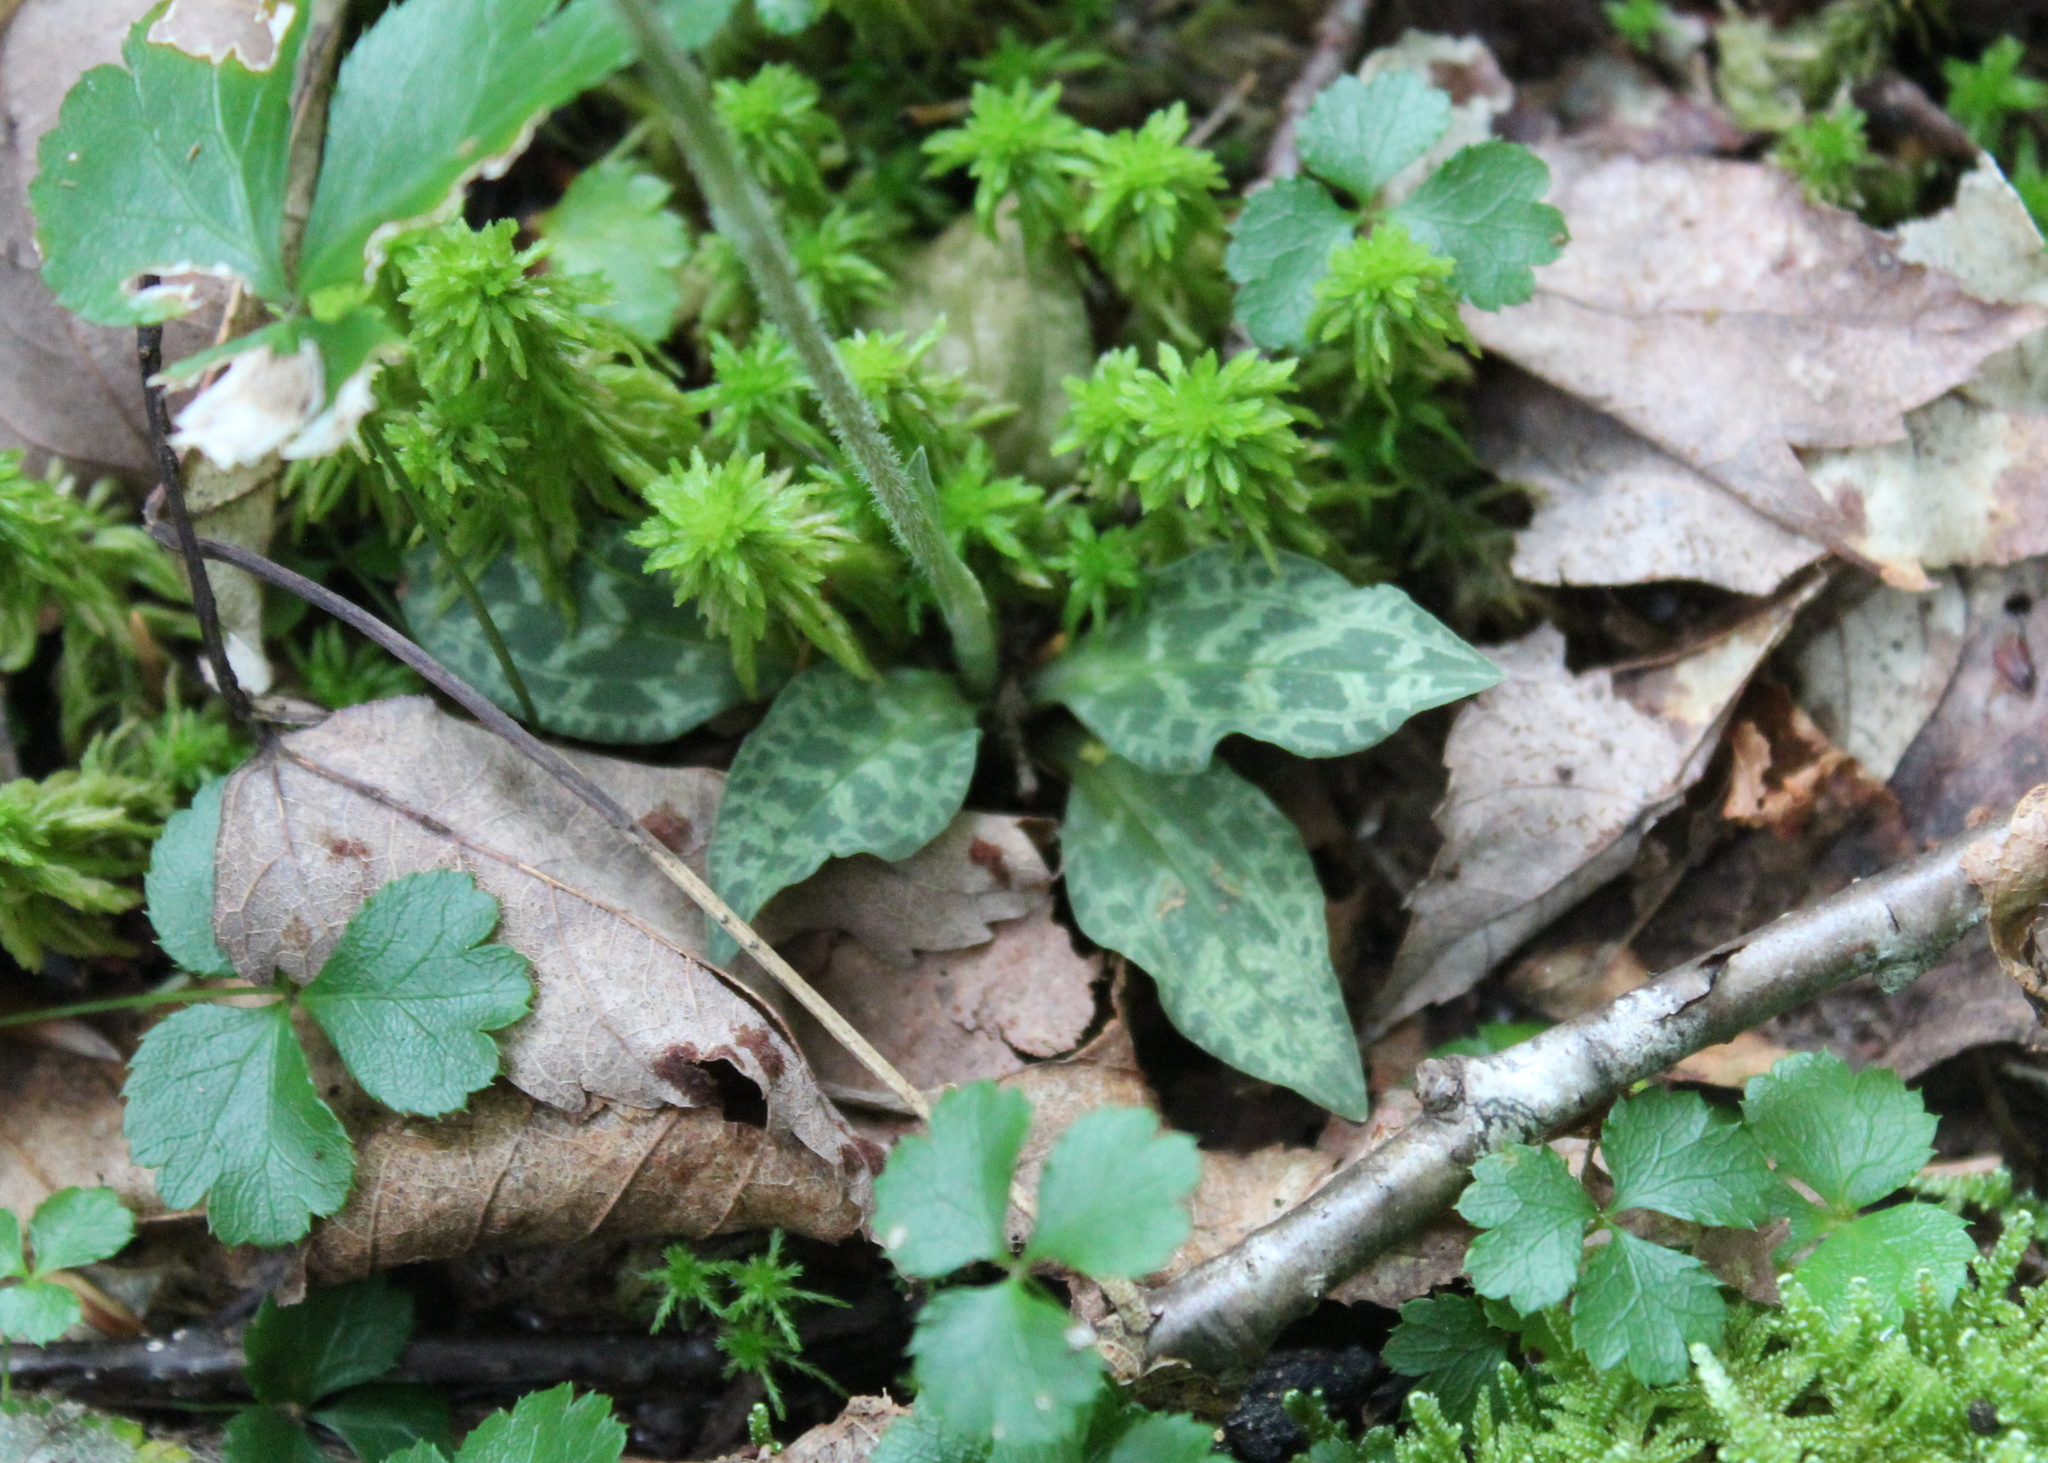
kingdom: Plantae
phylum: Tracheophyta
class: Liliopsida
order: Asparagales
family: Orchidaceae
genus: Goodyera
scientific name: Goodyera tesselata
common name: Checkered rattlesnake-plantain
